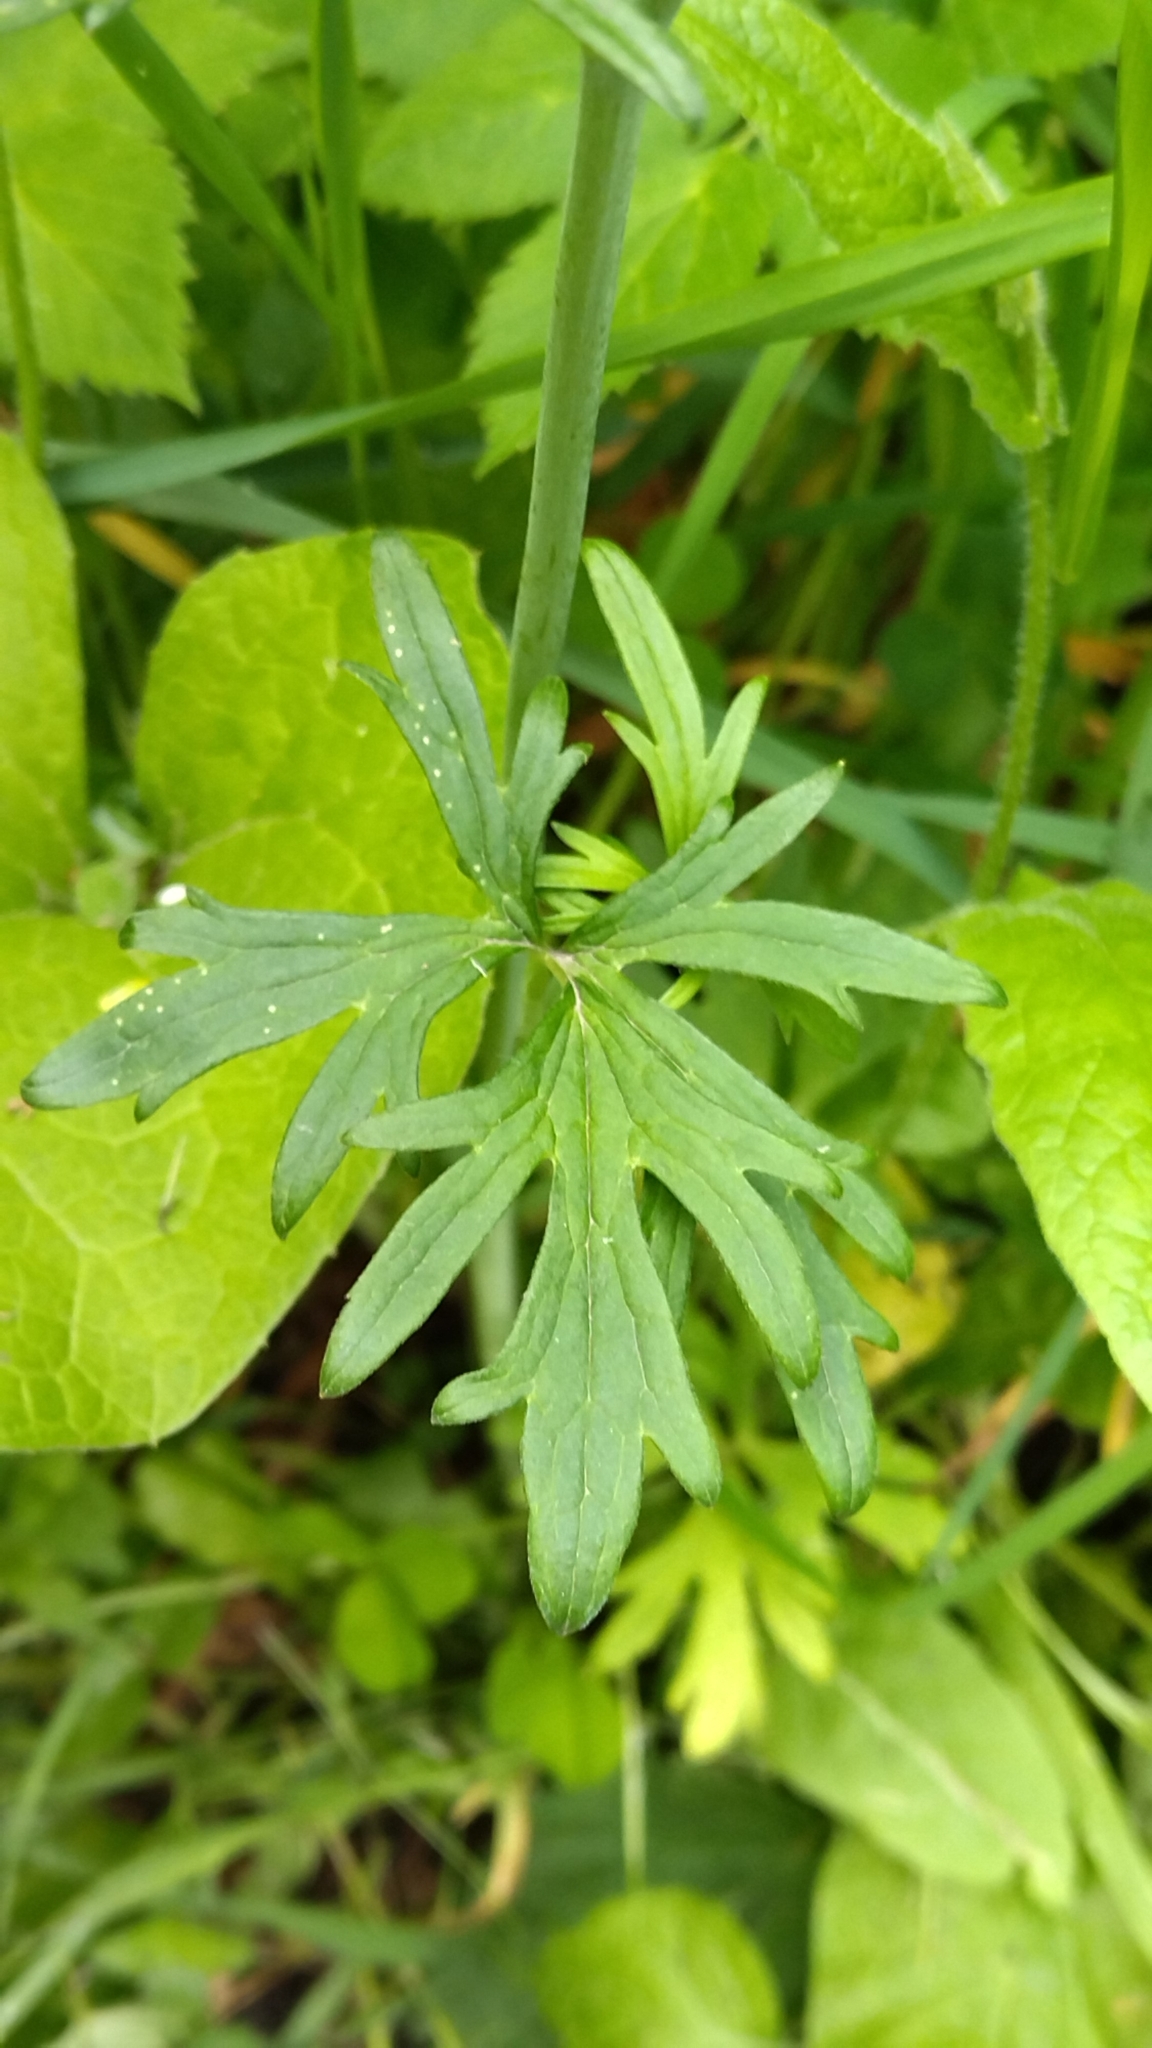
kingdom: Plantae
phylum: Tracheophyta
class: Magnoliopsida
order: Ranunculales
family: Ranunculaceae
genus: Ranunculus
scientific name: Ranunculus acris
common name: Meadow buttercup
